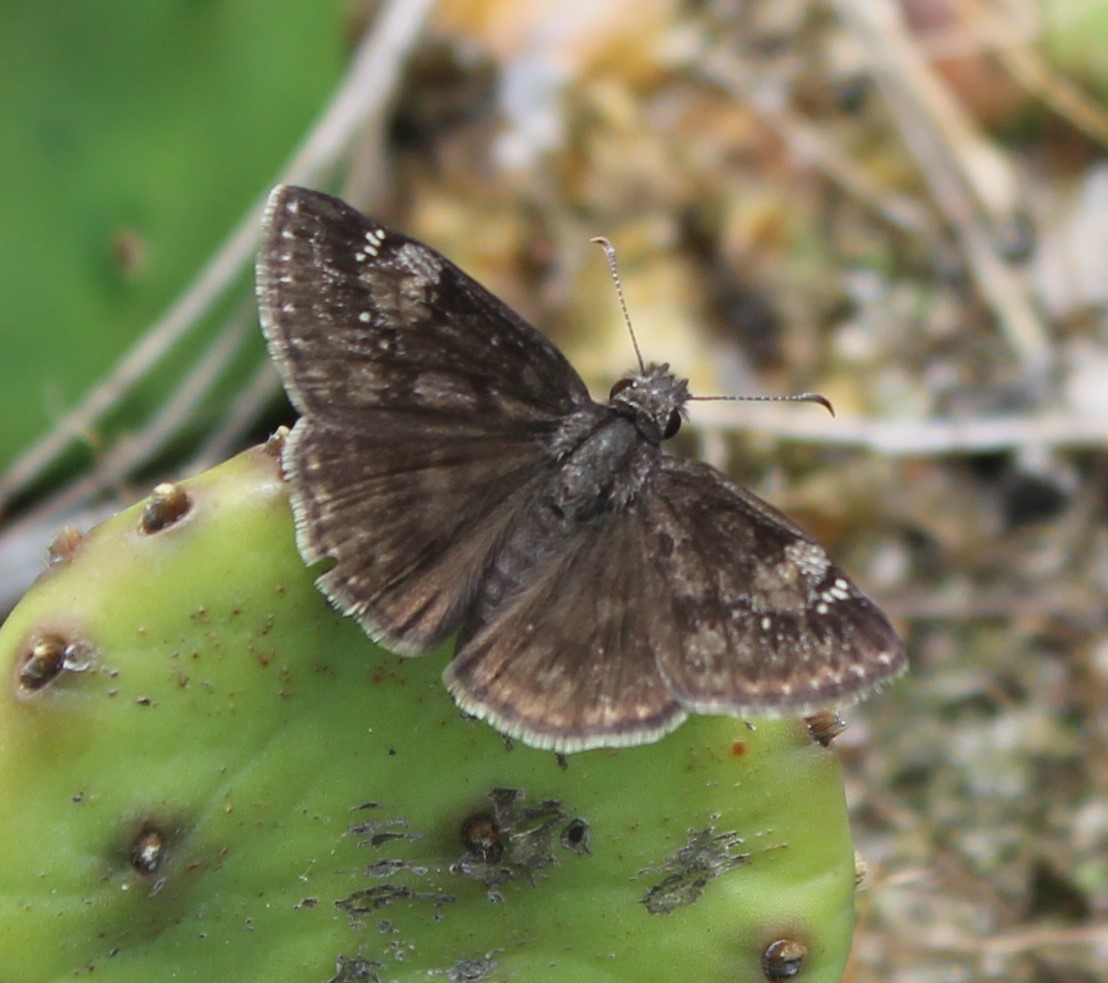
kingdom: Animalia
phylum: Arthropoda
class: Insecta
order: Lepidoptera
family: Hesperiidae
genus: Erynnis
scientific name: Erynnis baptisiae
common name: Wild indigo duskywing
